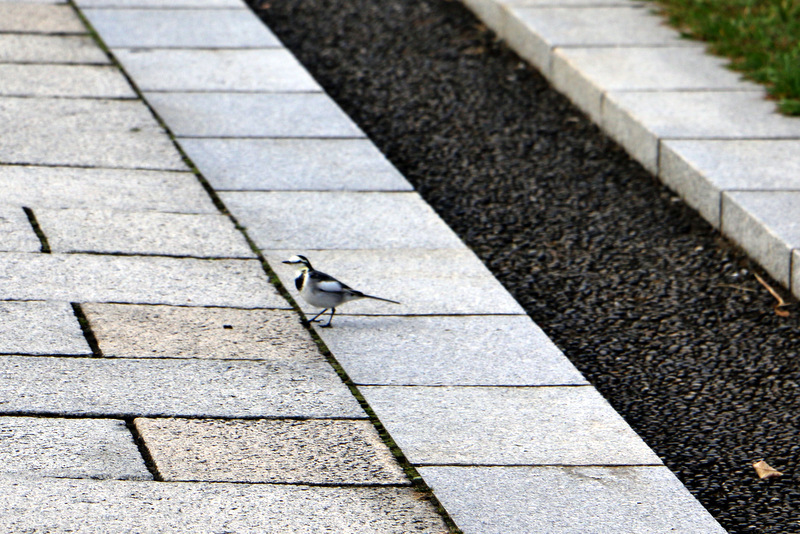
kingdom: Animalia
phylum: Chordata
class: Aves
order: Passeriformes
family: Motacillidae
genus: Motacilla
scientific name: Motacilla alba
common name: White wagtail
